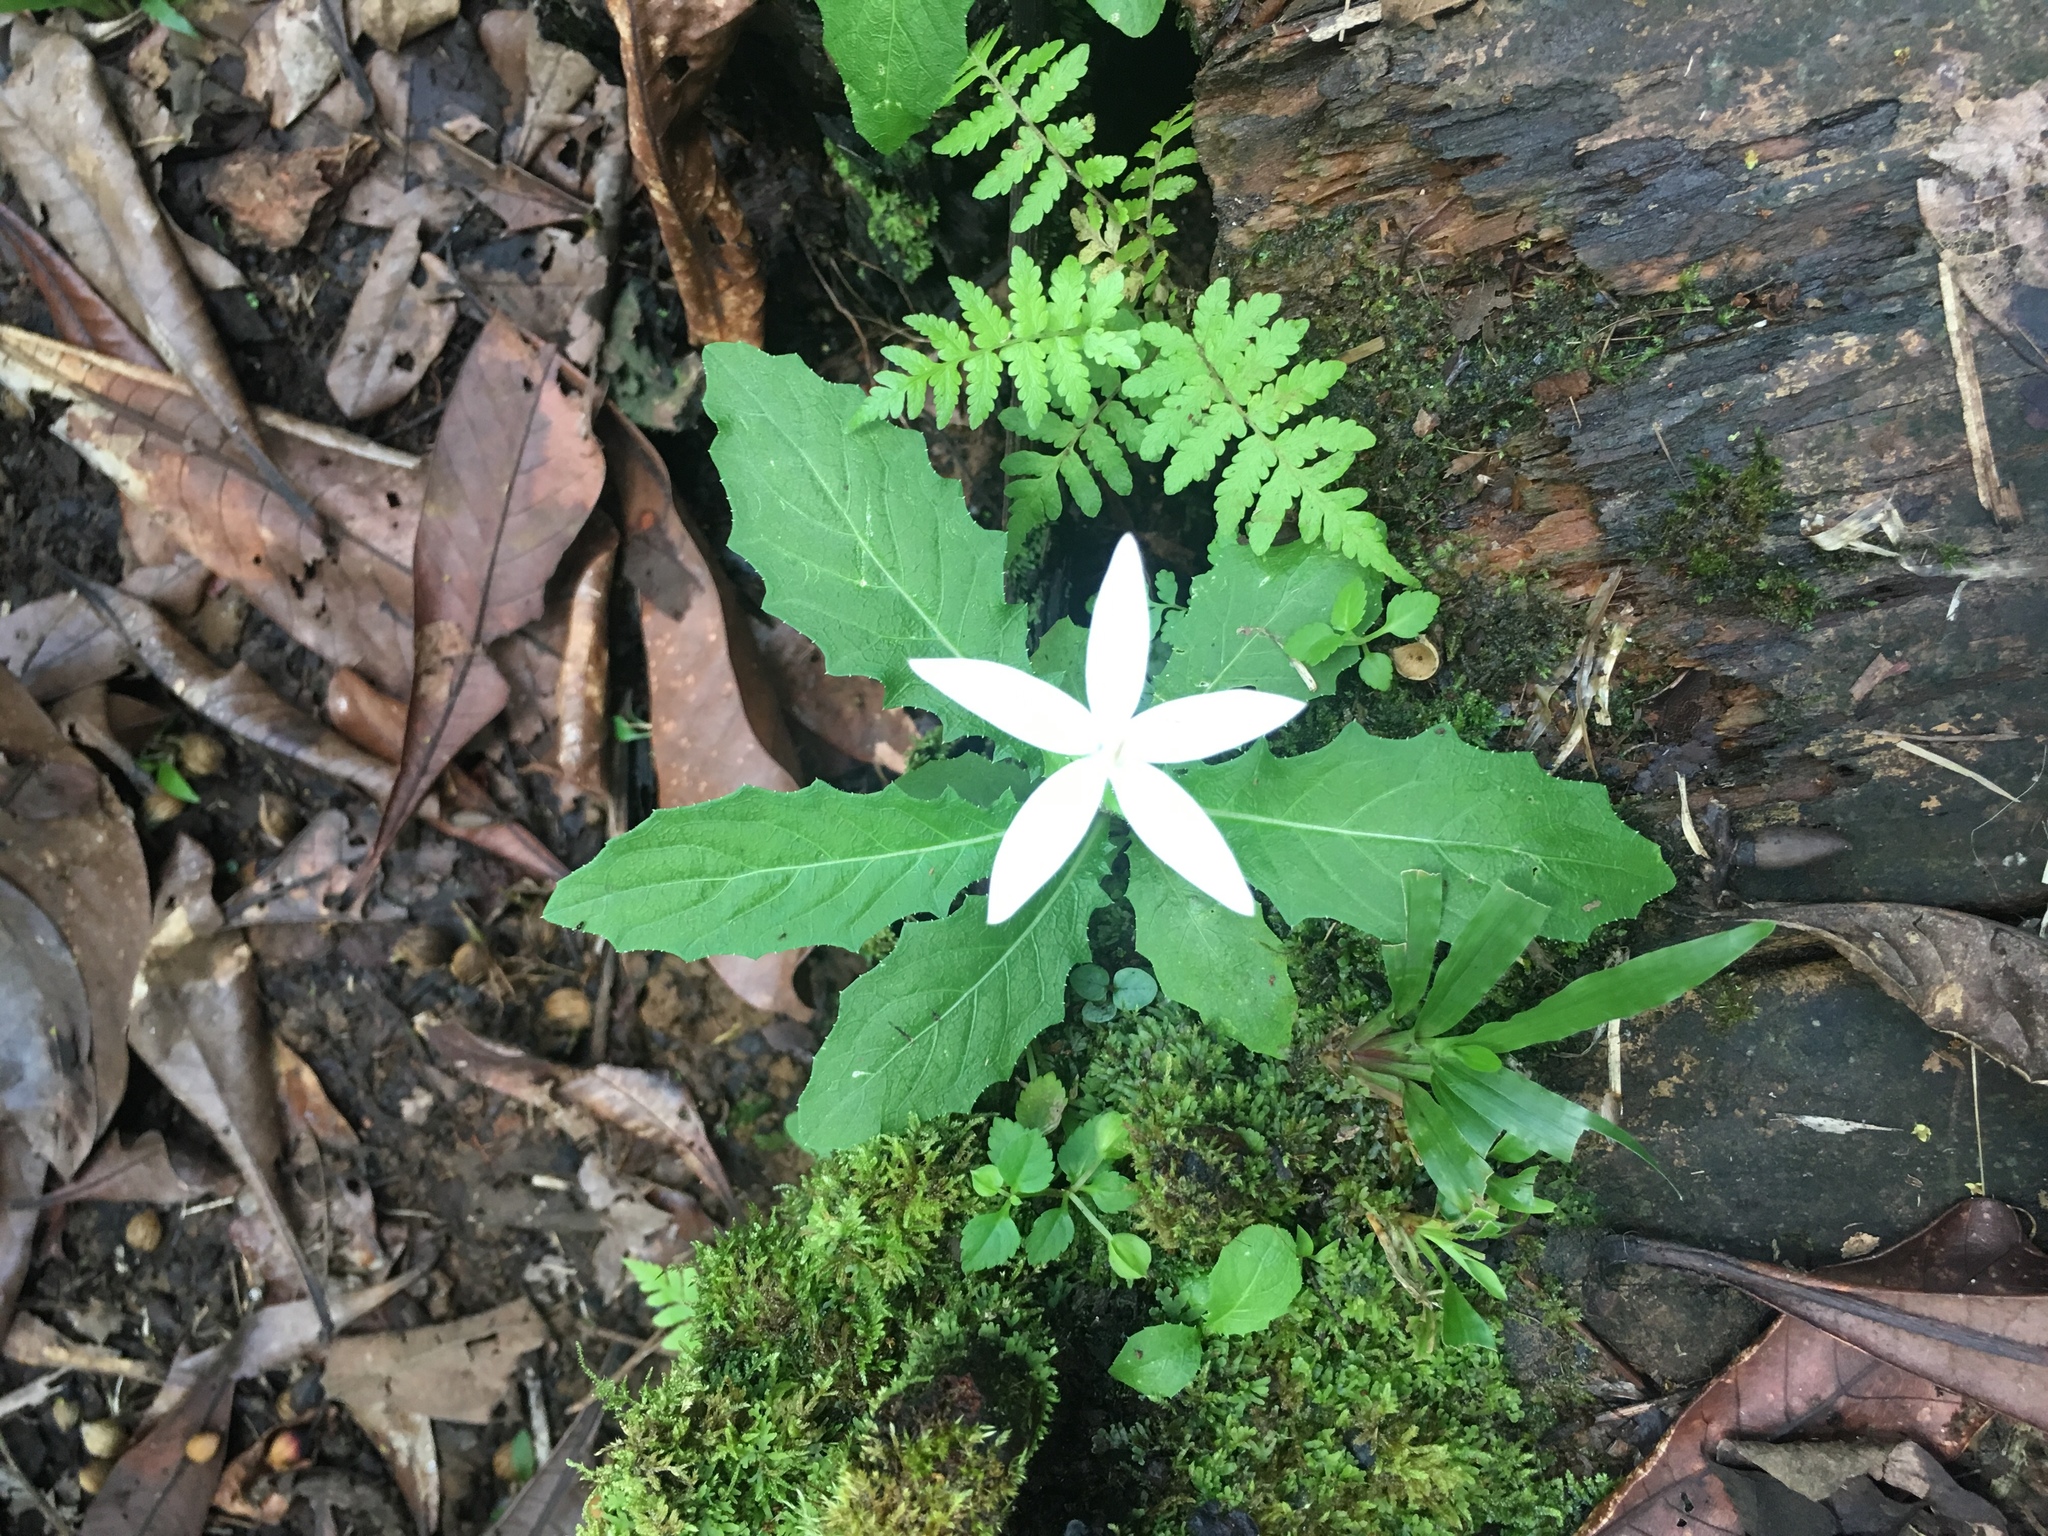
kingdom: Plantae
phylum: Tracheophyta
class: Magnoliopsida
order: Asterales
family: Campanulaceae
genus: Hippobroma
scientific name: Hippobroma longiflora
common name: Madamfate
